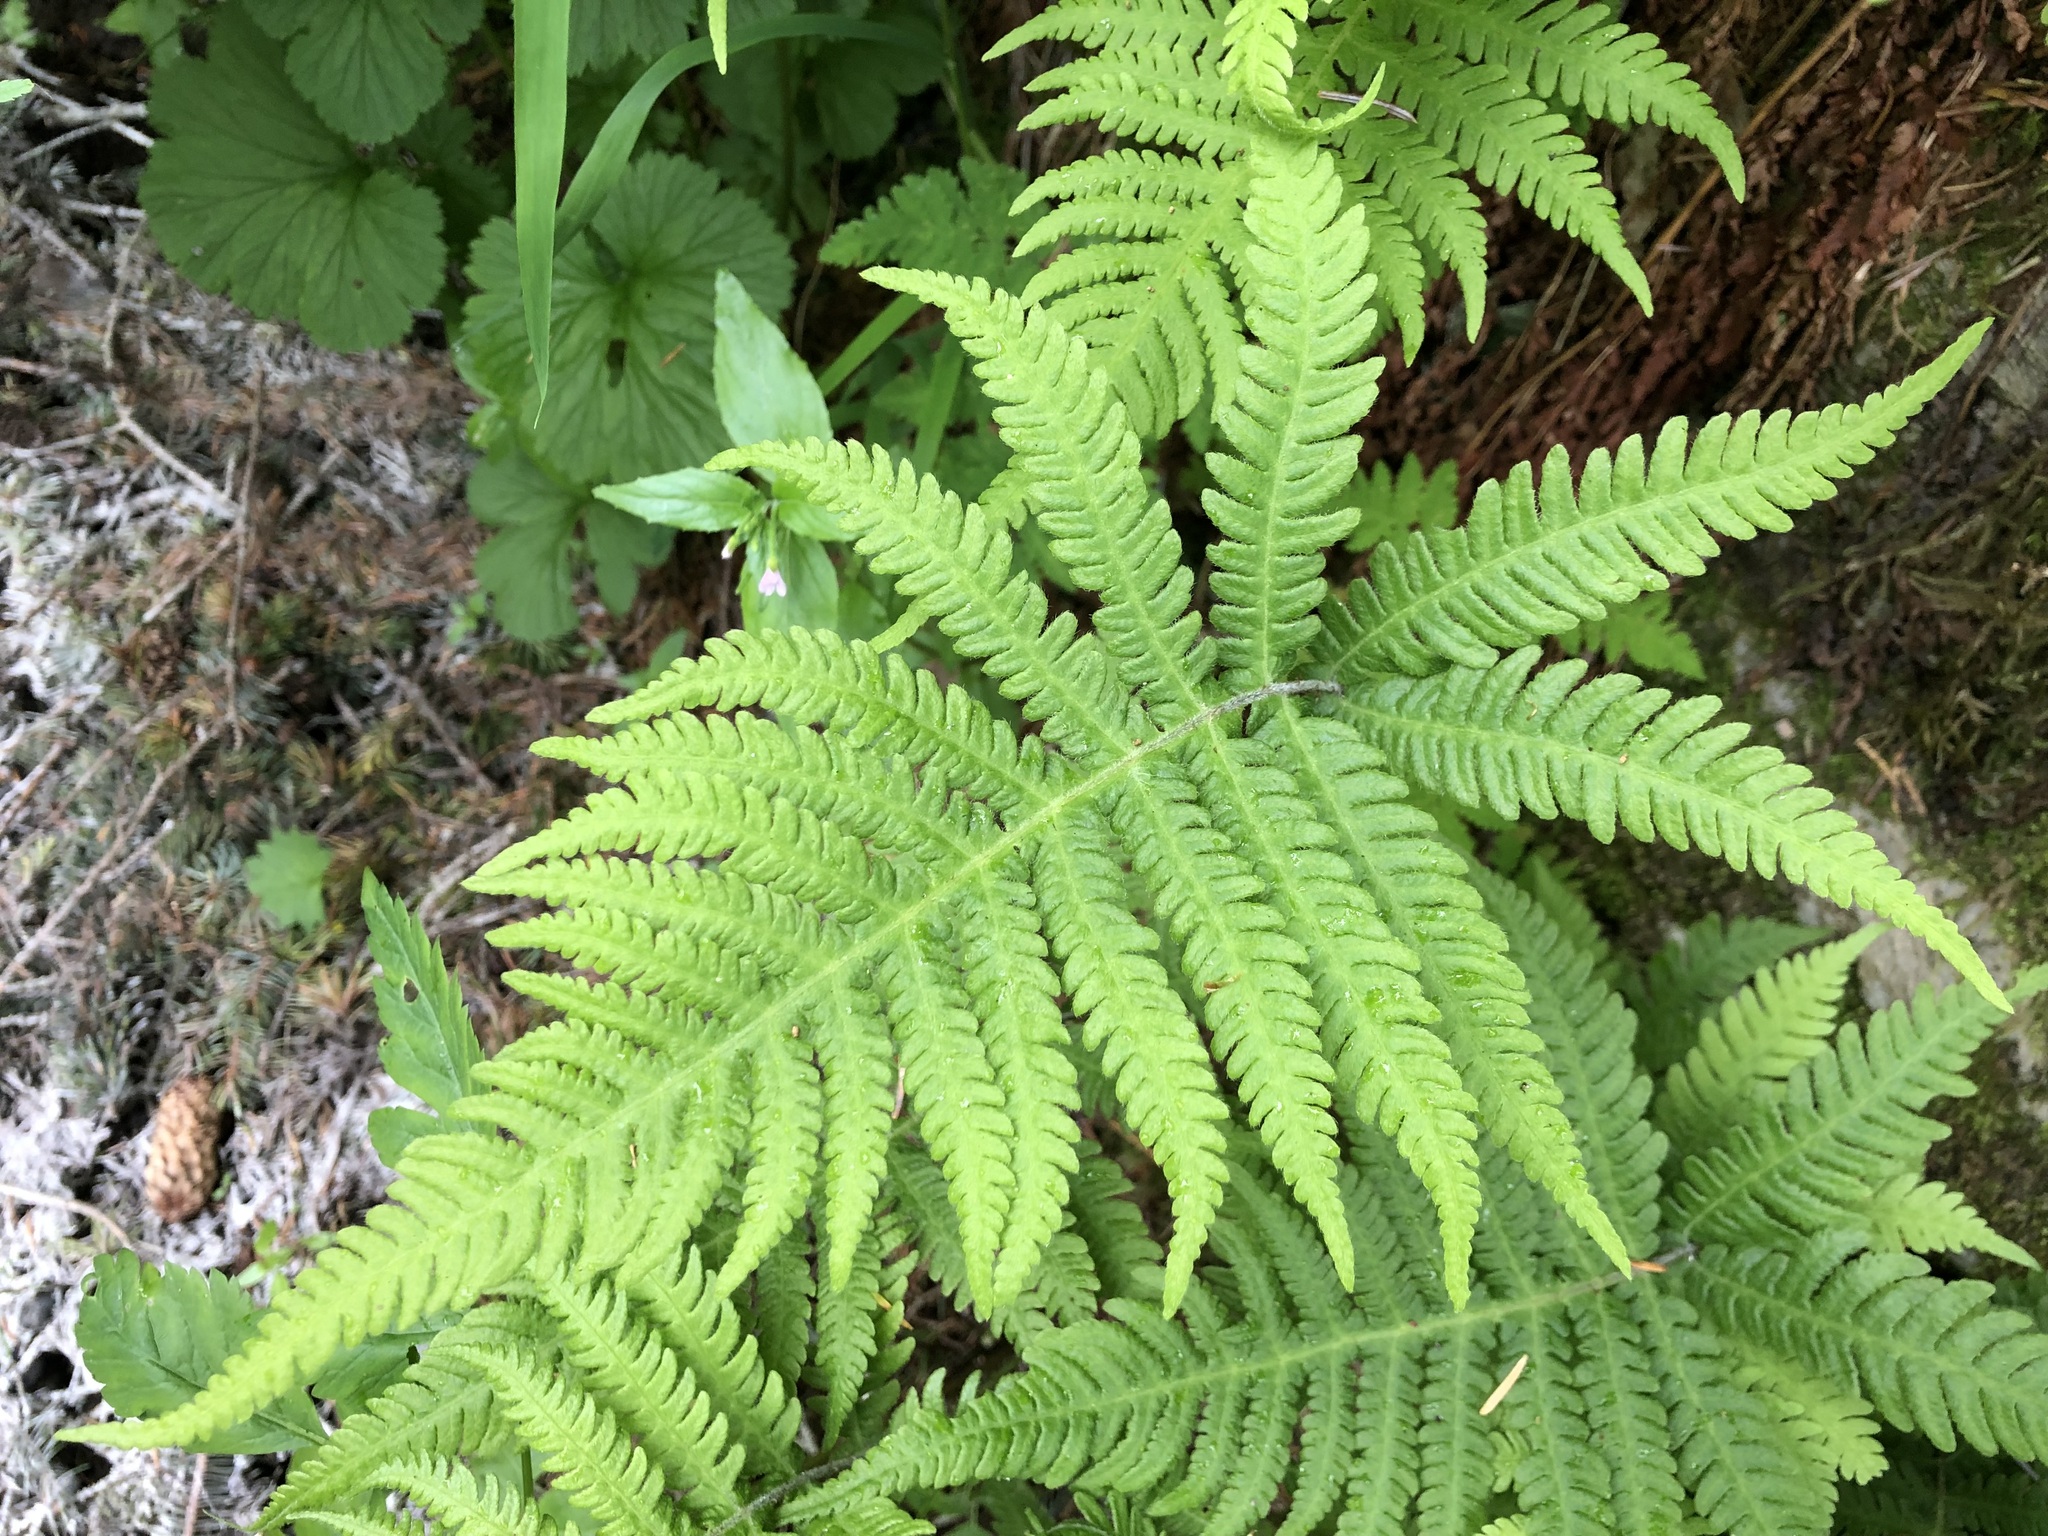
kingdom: Plantae
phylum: Tracheophyta
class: Polypodiopsida
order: Polypodiales
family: Thelypteridaceae
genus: Phegopteris
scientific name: Phegopteris connectilis
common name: Beech fern
